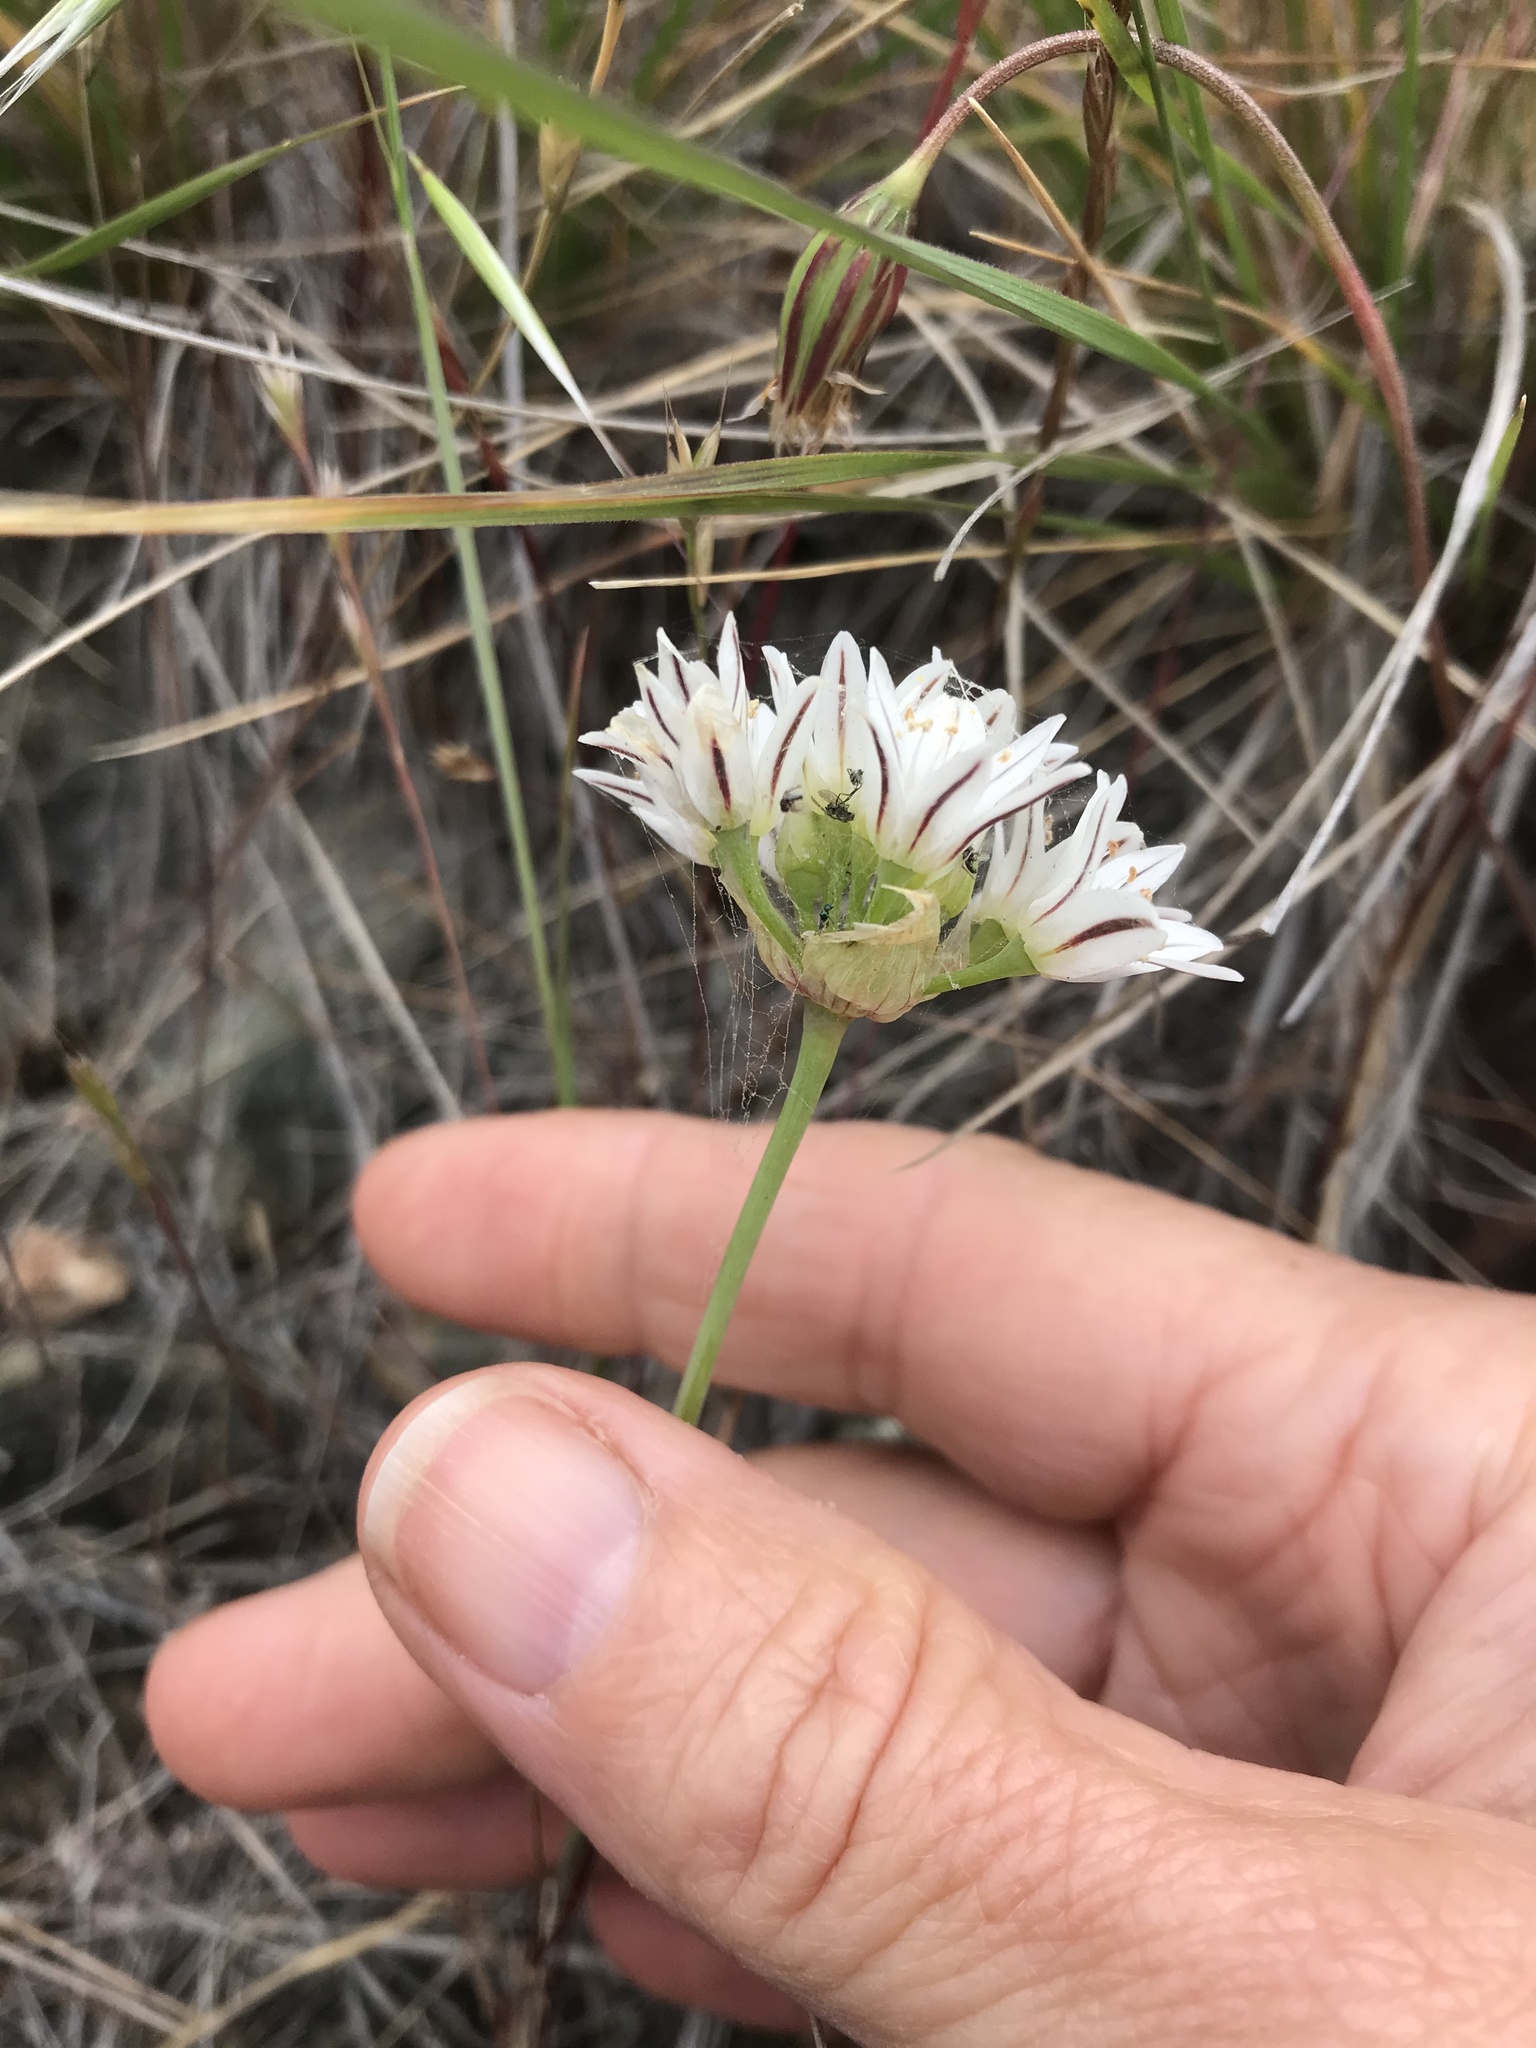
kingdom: Plantae
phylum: Tracheophyta
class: Liliopsida
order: Asparagales
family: Amaryllidaceae
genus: Allium
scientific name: Allium lacunosum
